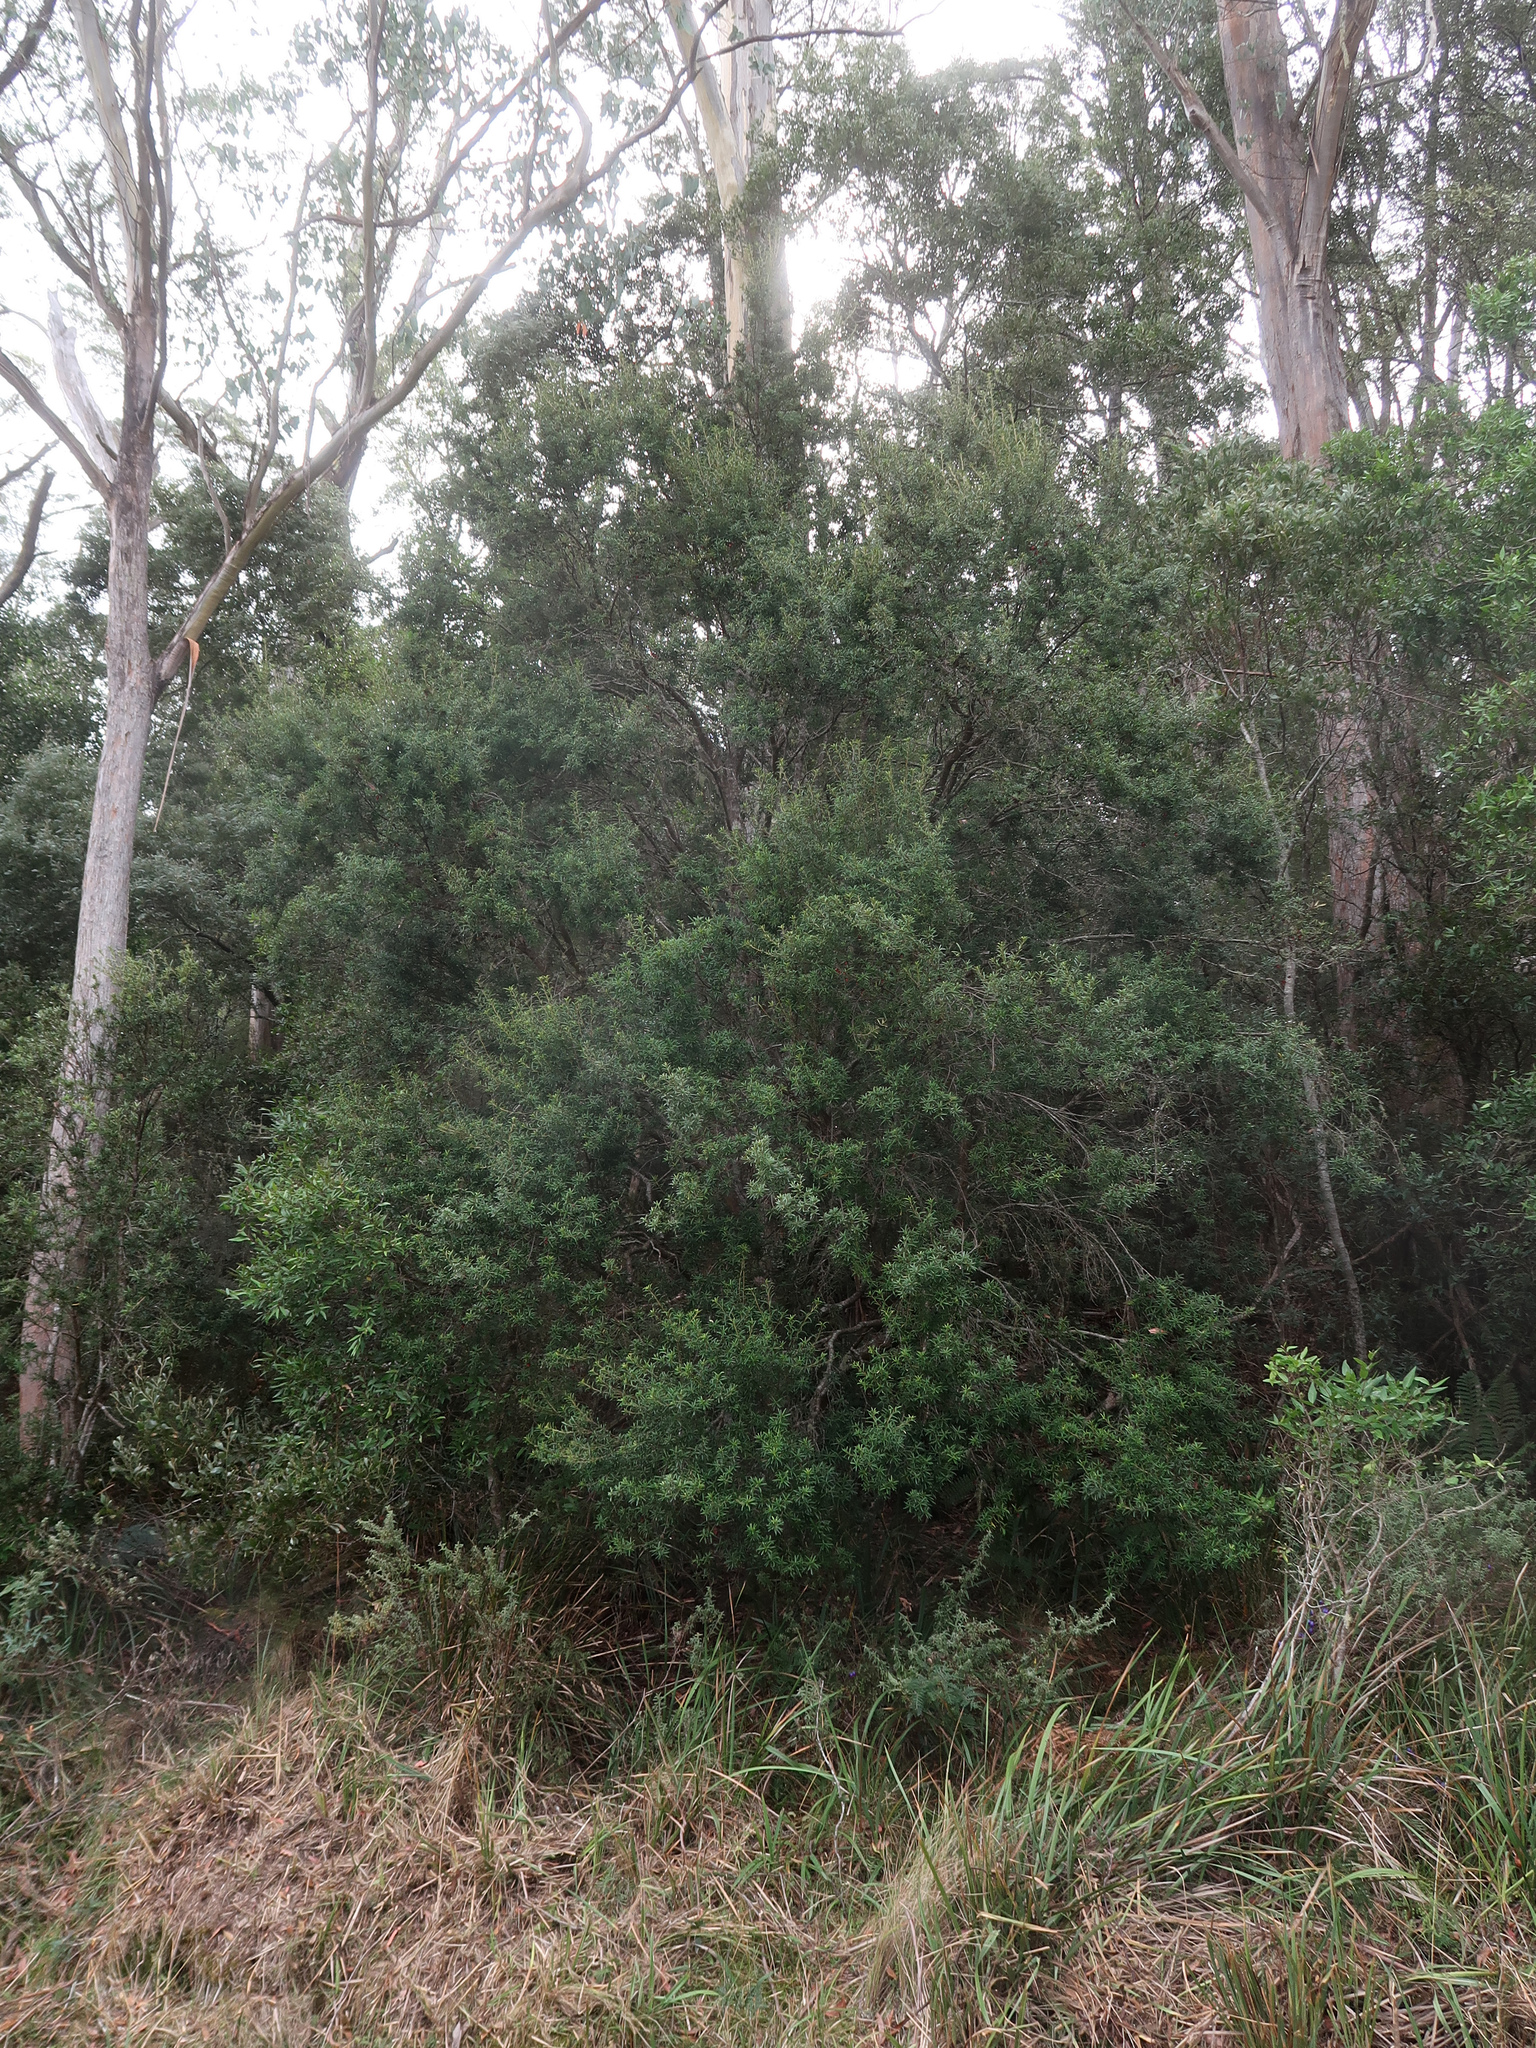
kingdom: Plantae
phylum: Tracheophyta
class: Magnoliopsida
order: Apiales
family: Pittosporaceae
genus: Pittosporum
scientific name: Pittosporum bicolor
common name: Tallowwood
